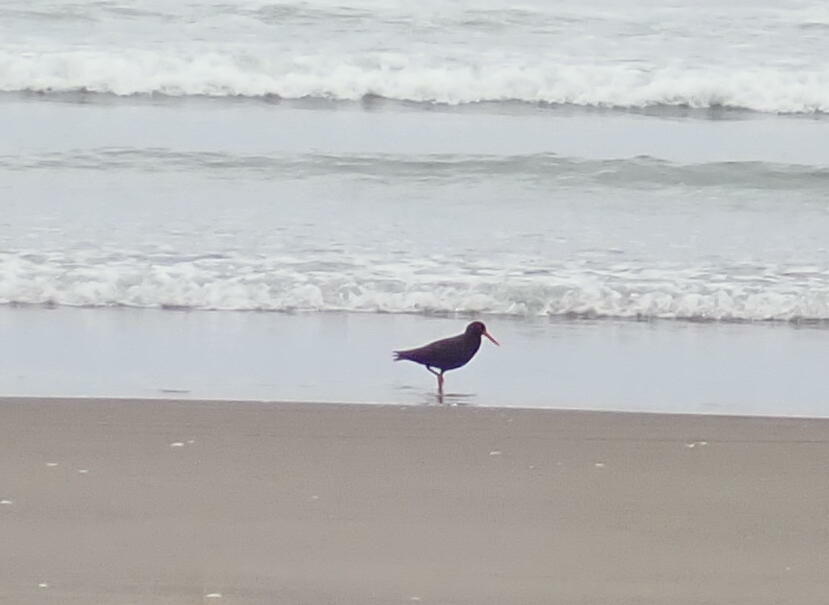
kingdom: Animalia
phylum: Chordata
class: Aves
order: Charadriiformes
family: Haematopodidae
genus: Haematopus
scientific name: Haematopus unicolor
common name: Variable oystercatcher
